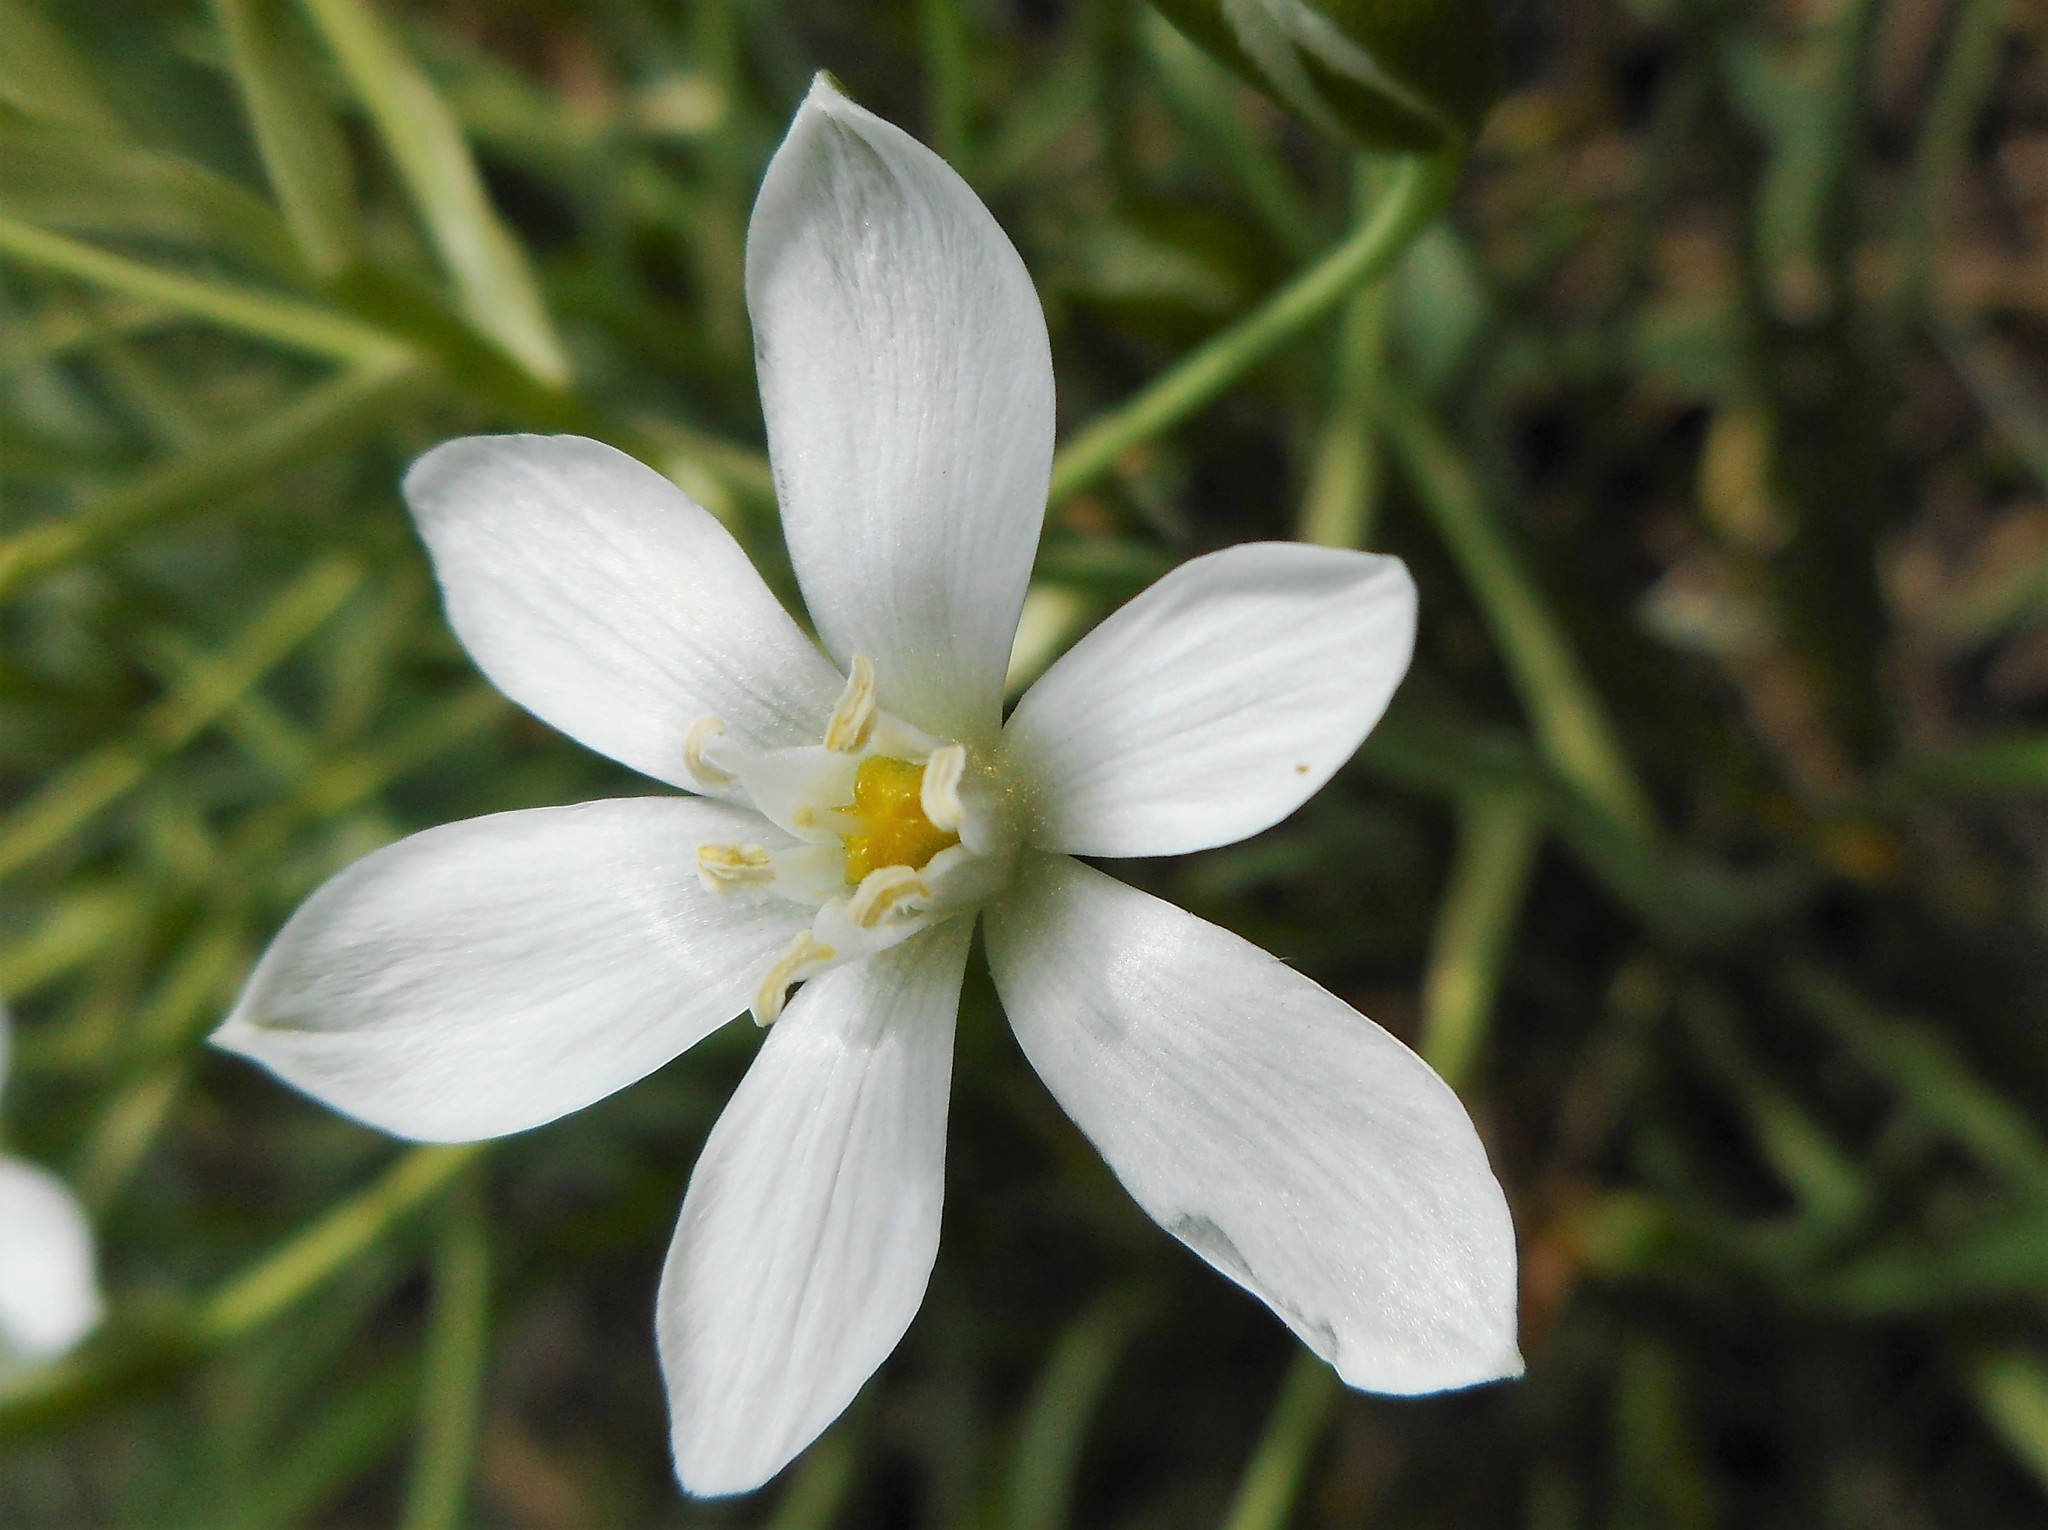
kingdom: Plantae
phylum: Tracheophyta
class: Liliopsida
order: Asparagales
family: Asparagaceae
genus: Ornithogalum
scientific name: Ornithogalum
